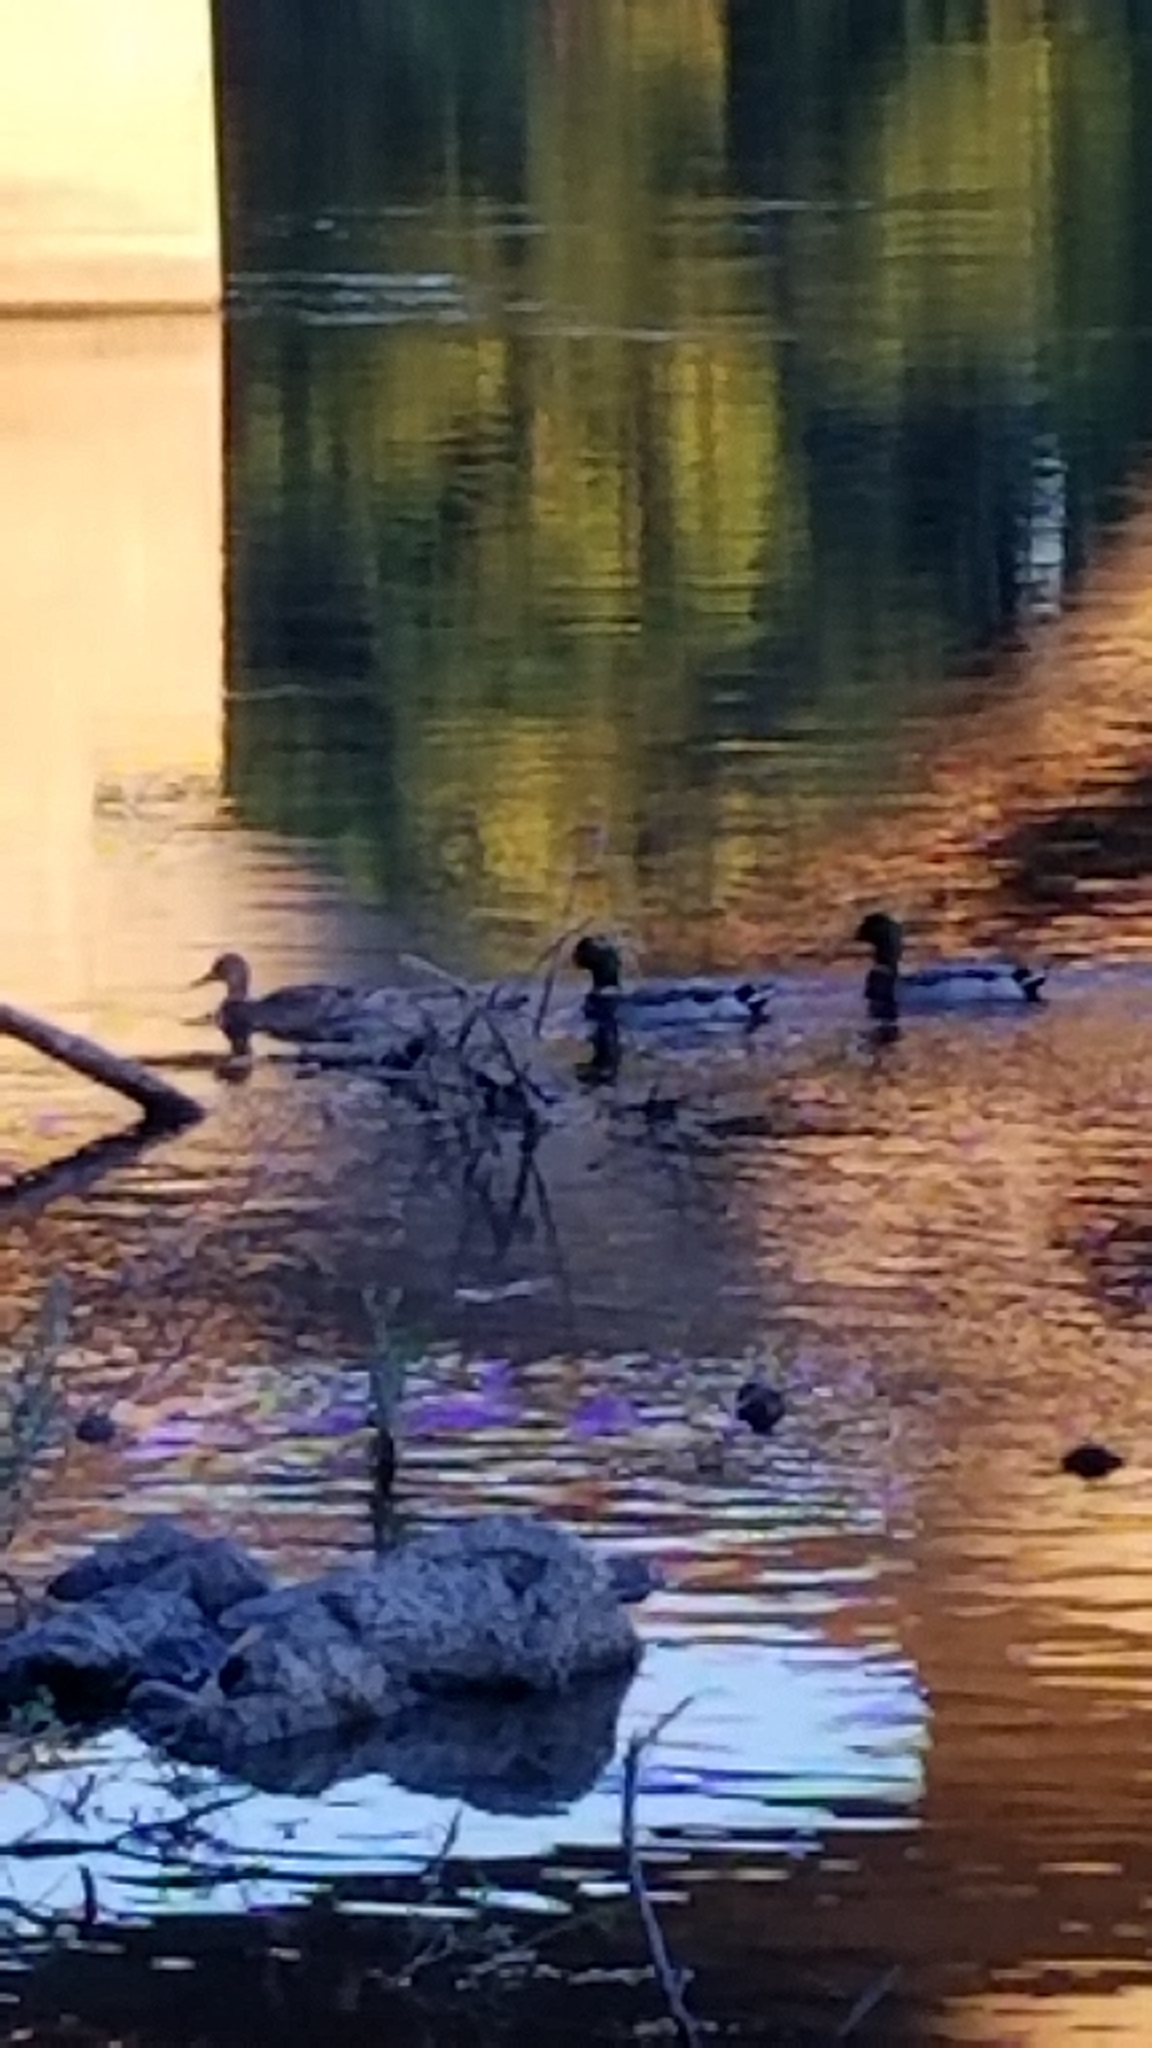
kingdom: Animalia
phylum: Chordata
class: Aves
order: Anseriformes
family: Anatidae
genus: Anas
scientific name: Anas platyrhynchos
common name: Mallard
